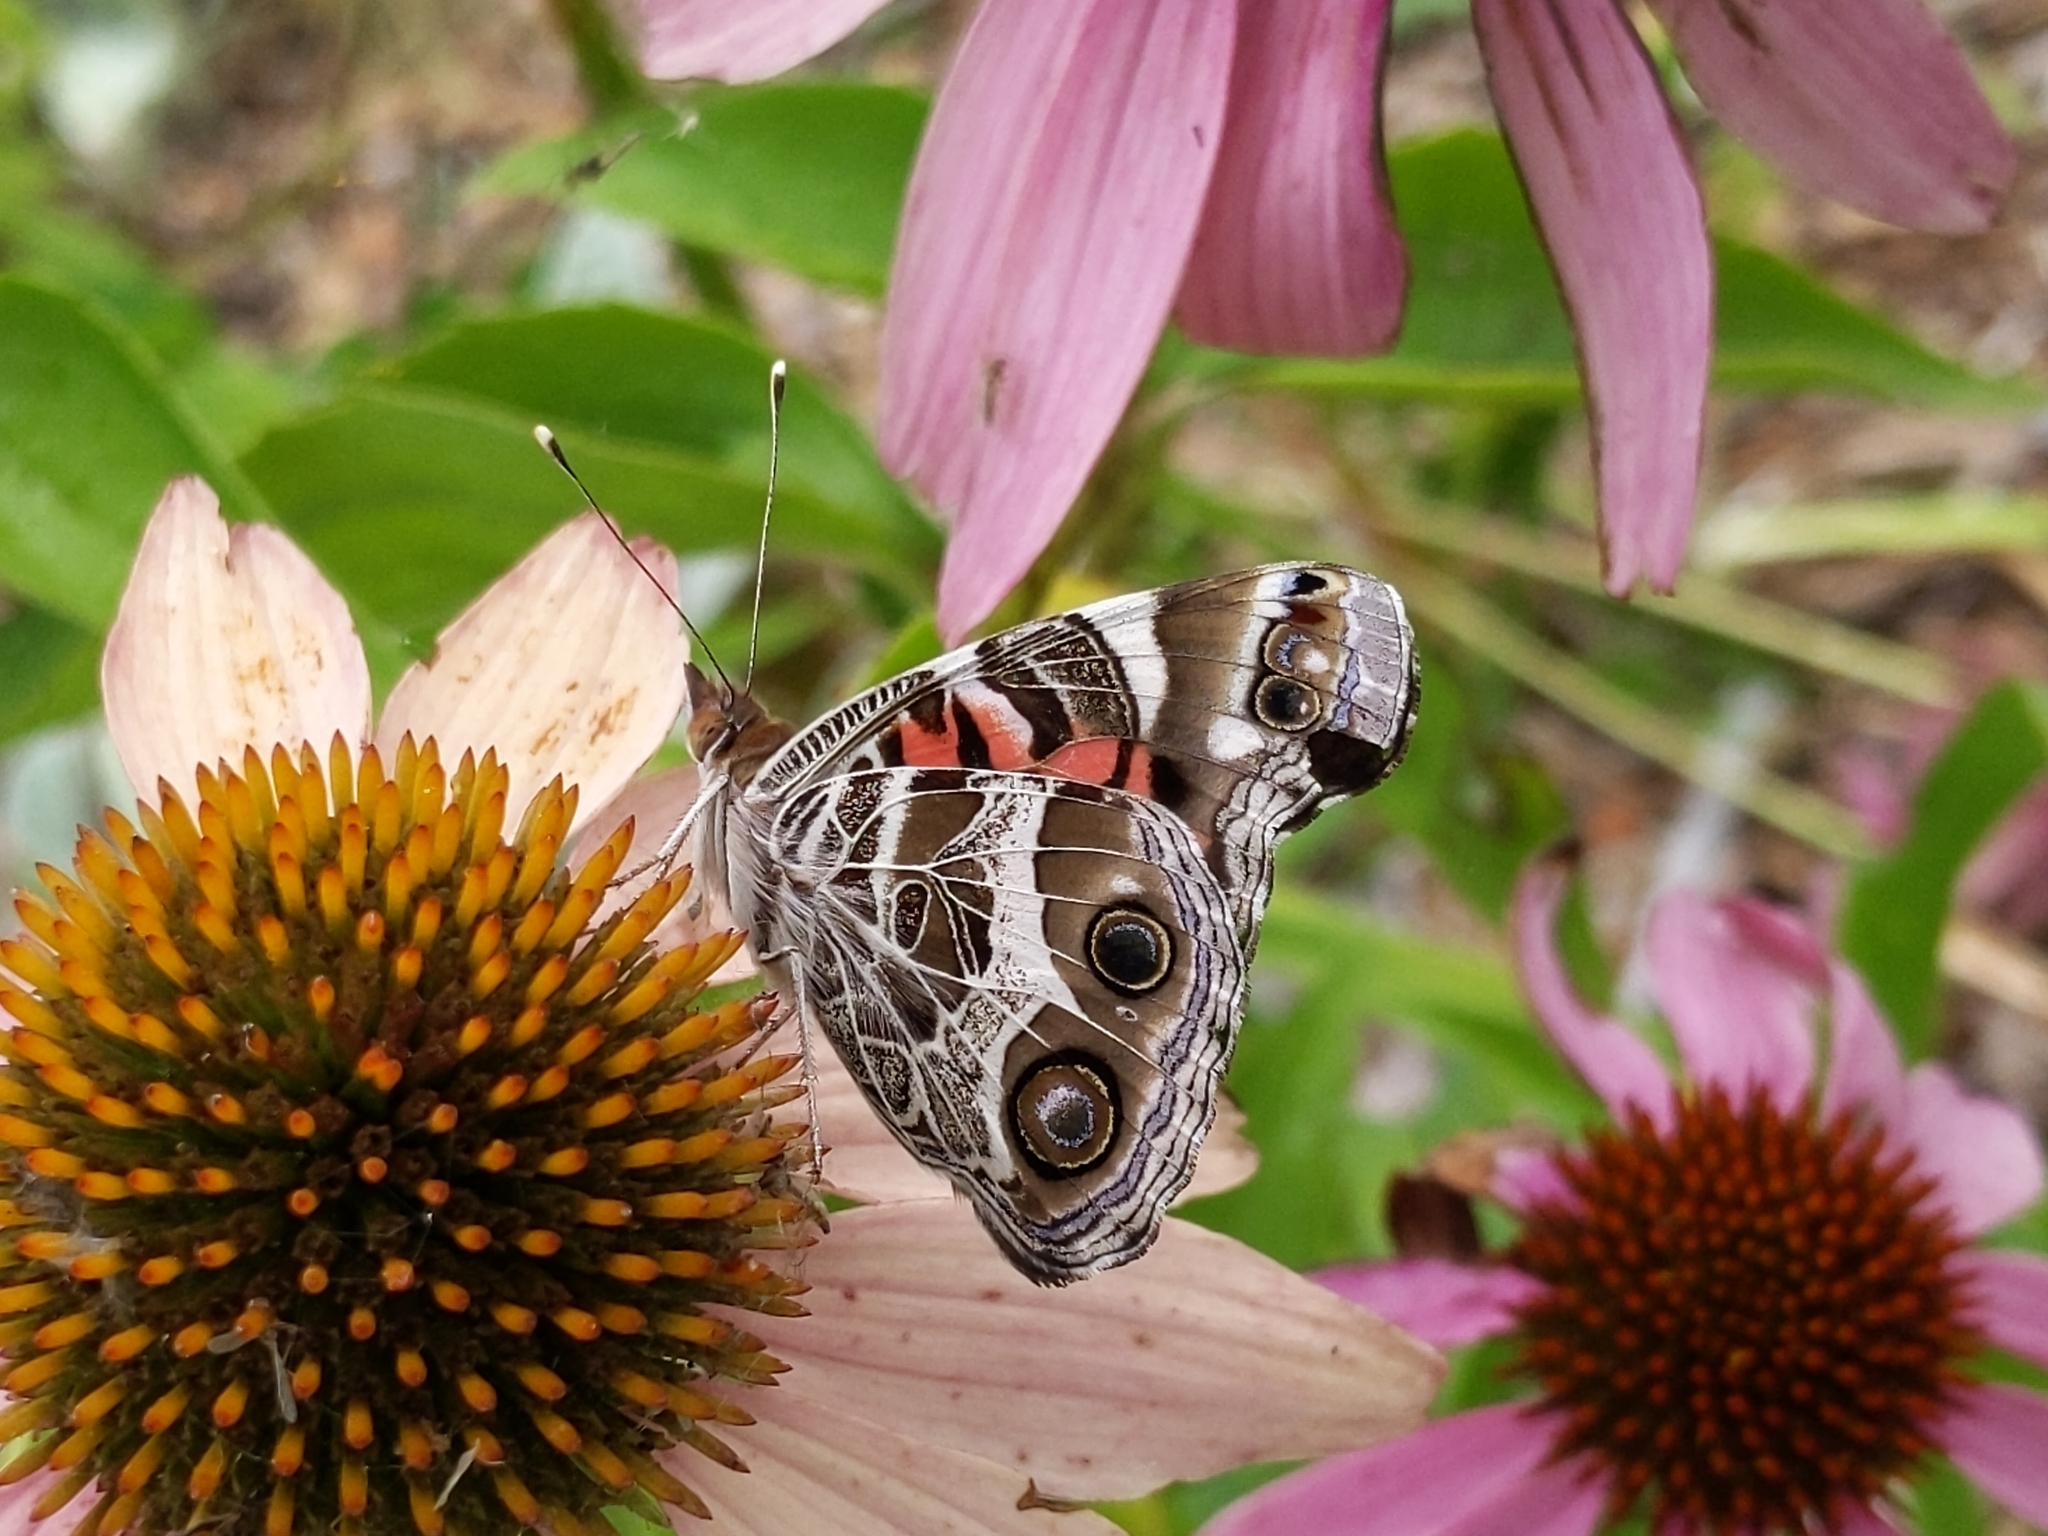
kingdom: Animalia
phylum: Arthropoda
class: Insecta
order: Lepidoptera
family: Nymphalidae
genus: Vanessa
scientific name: Vanessa virginiensis
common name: American lady
